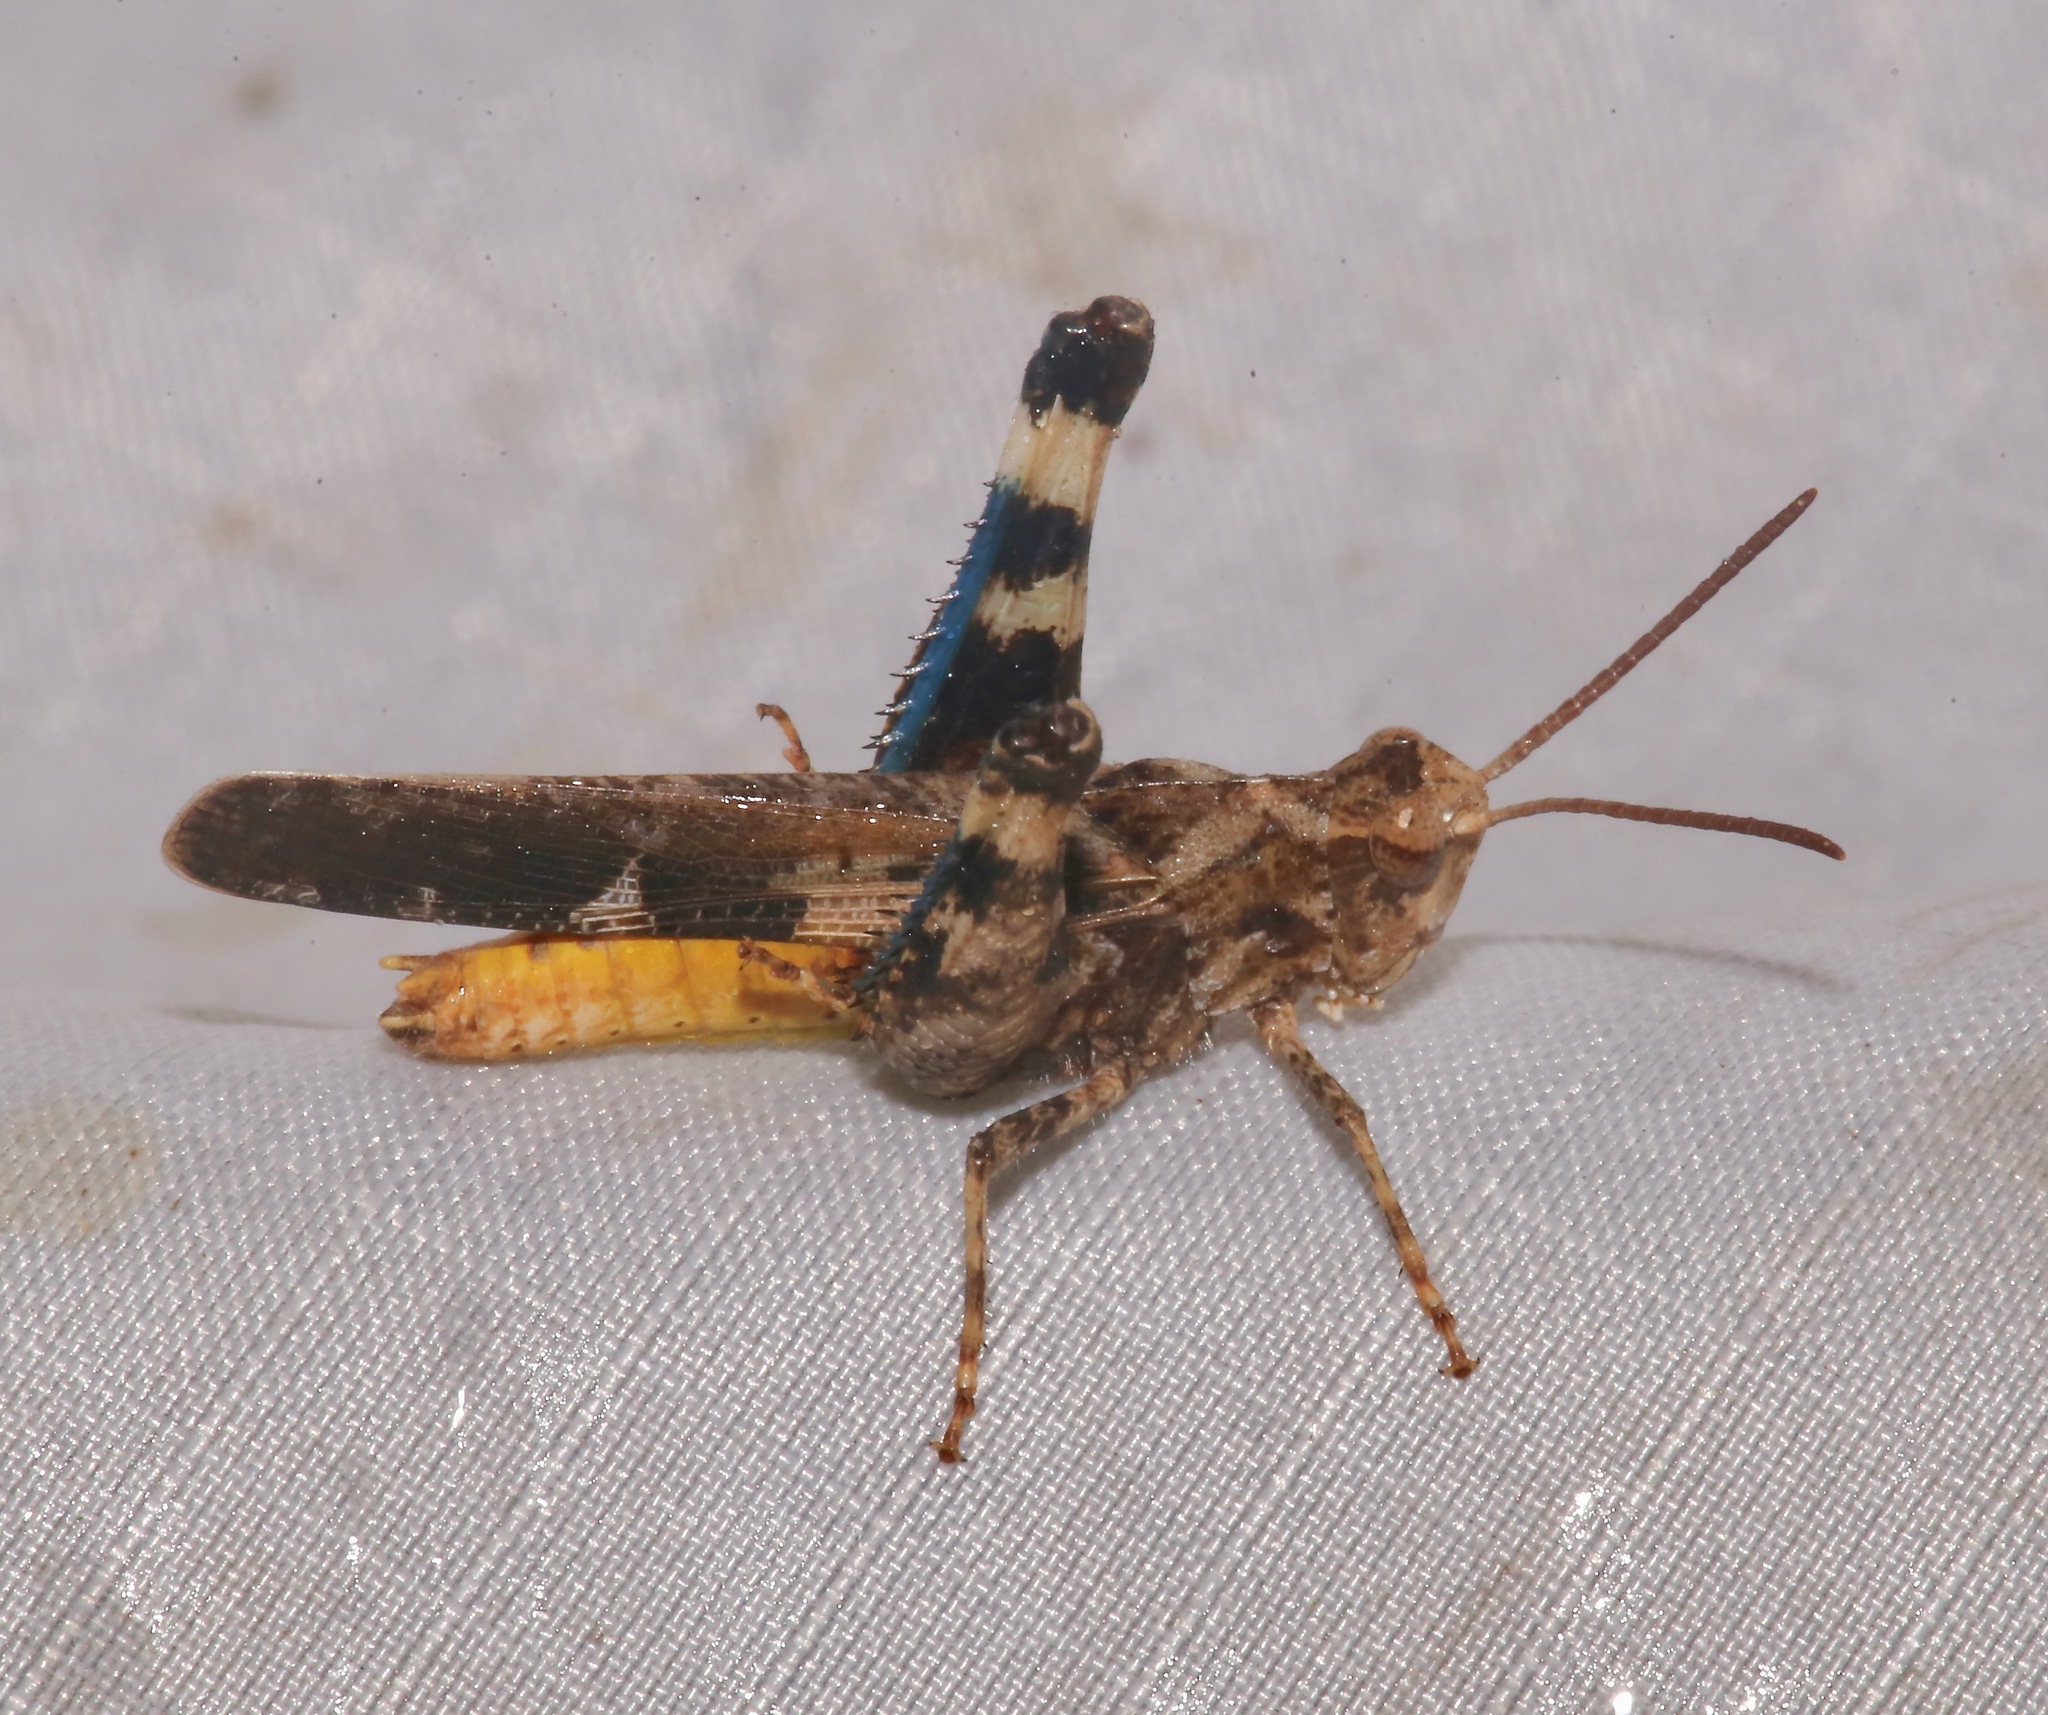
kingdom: Animalia
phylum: Arthropoda
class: Insecta
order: Orthoptera
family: Acrididae
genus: Chortophaga
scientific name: Chortophaga australior
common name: Southern green-striped grasshopper
